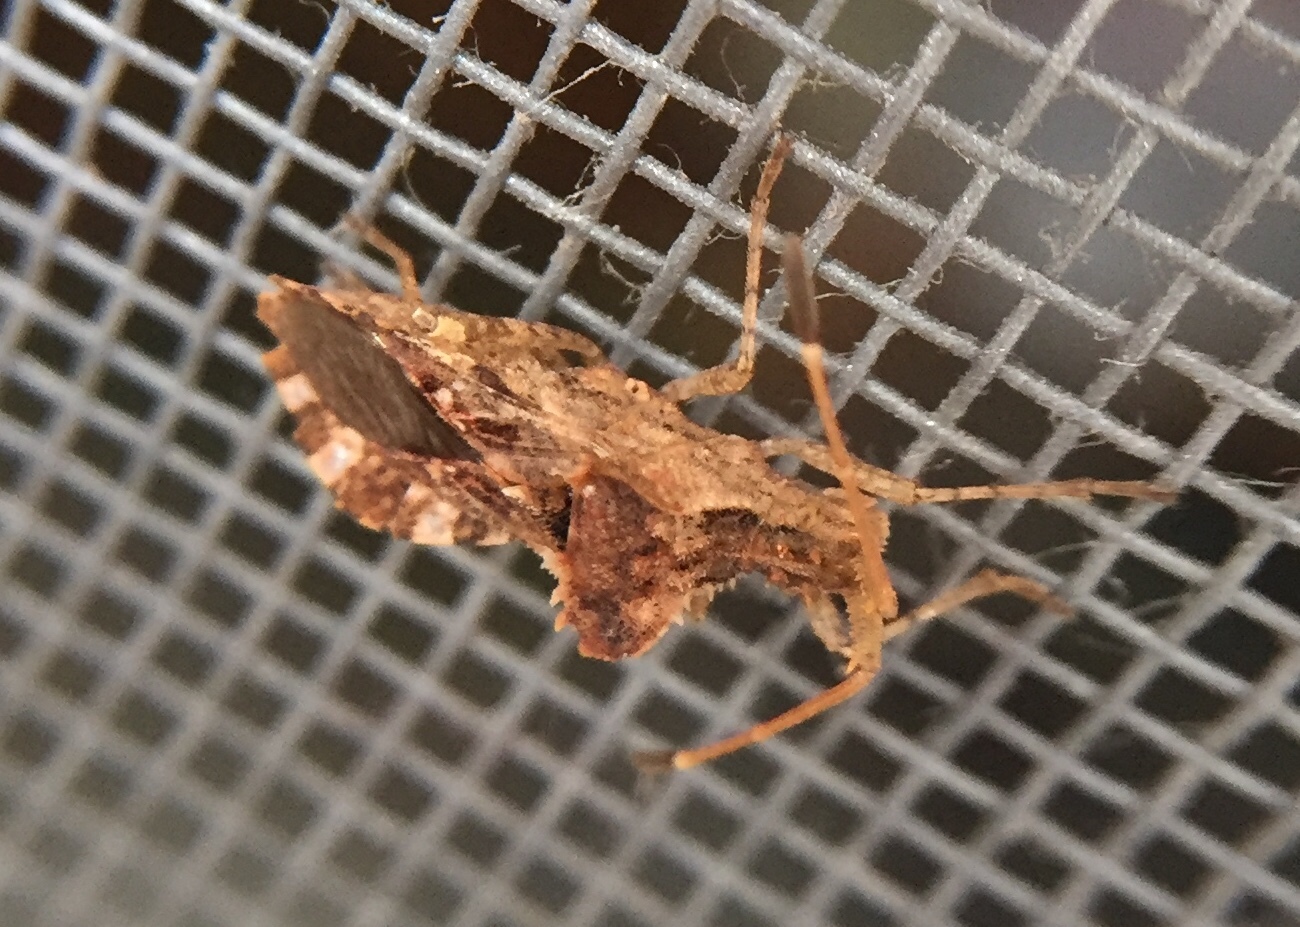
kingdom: Animalia
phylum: Arthropoda
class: Insecta
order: Hemiptera
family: Coreidae
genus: Centrocoris
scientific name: Centrocoris variegatus
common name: Leaf-footed bug
